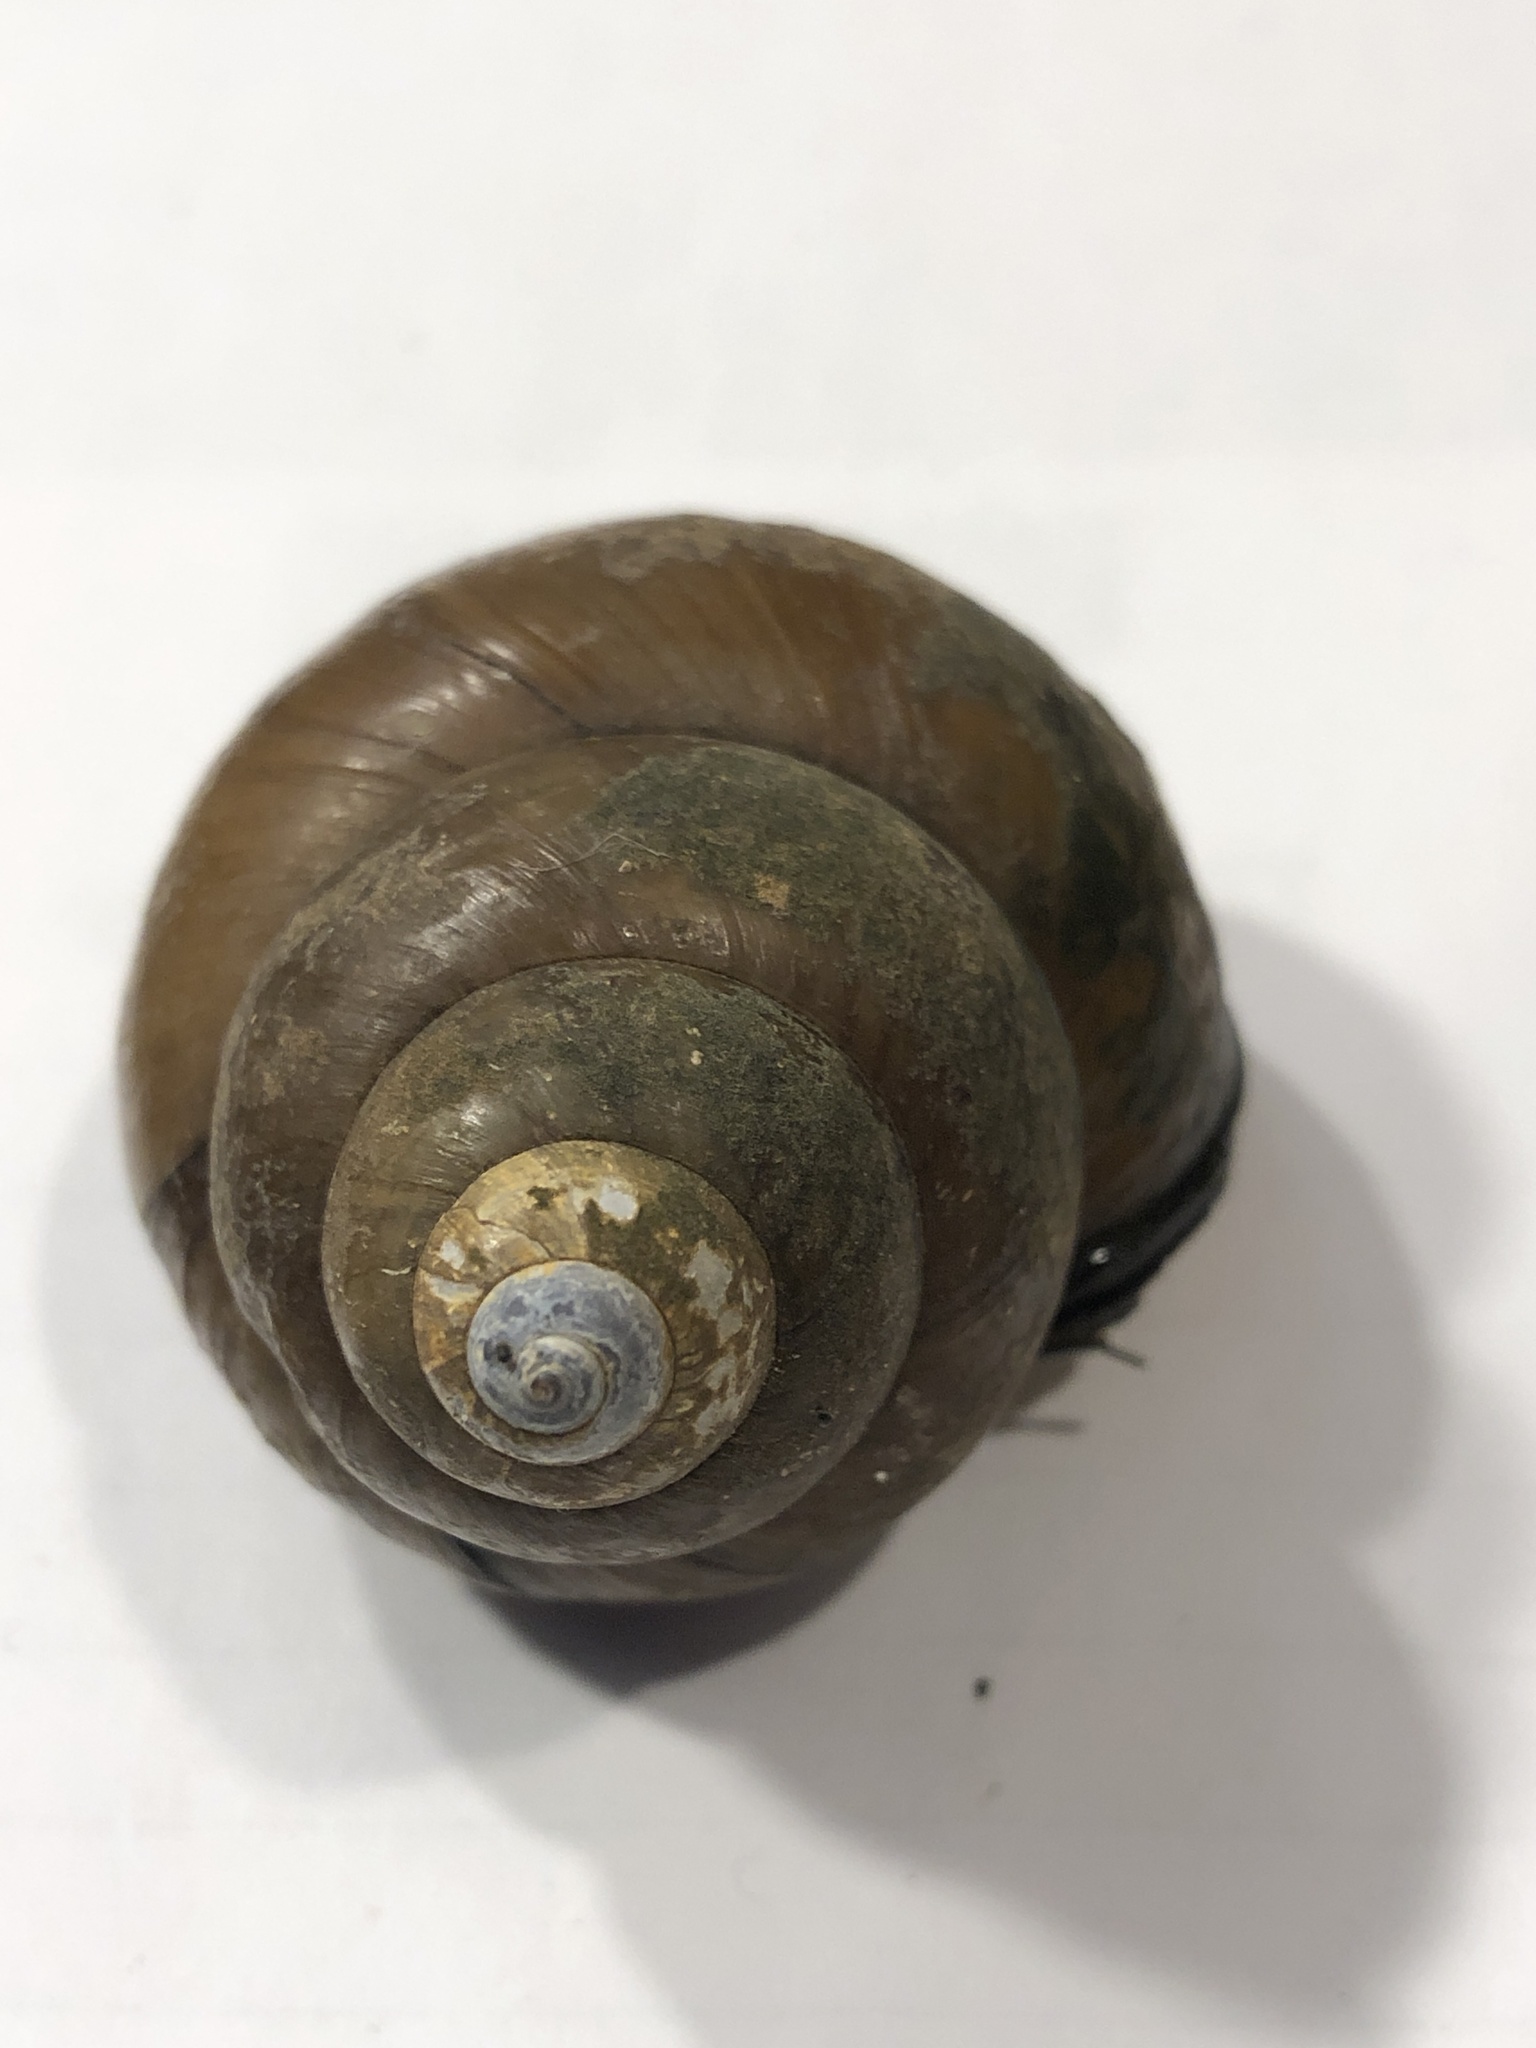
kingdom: Animalia
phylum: Mollusca
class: Gastropoda
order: Architaenioglossa
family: Viviparidae
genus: Cipangopaludina
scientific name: Cipangopaludina chinensis
